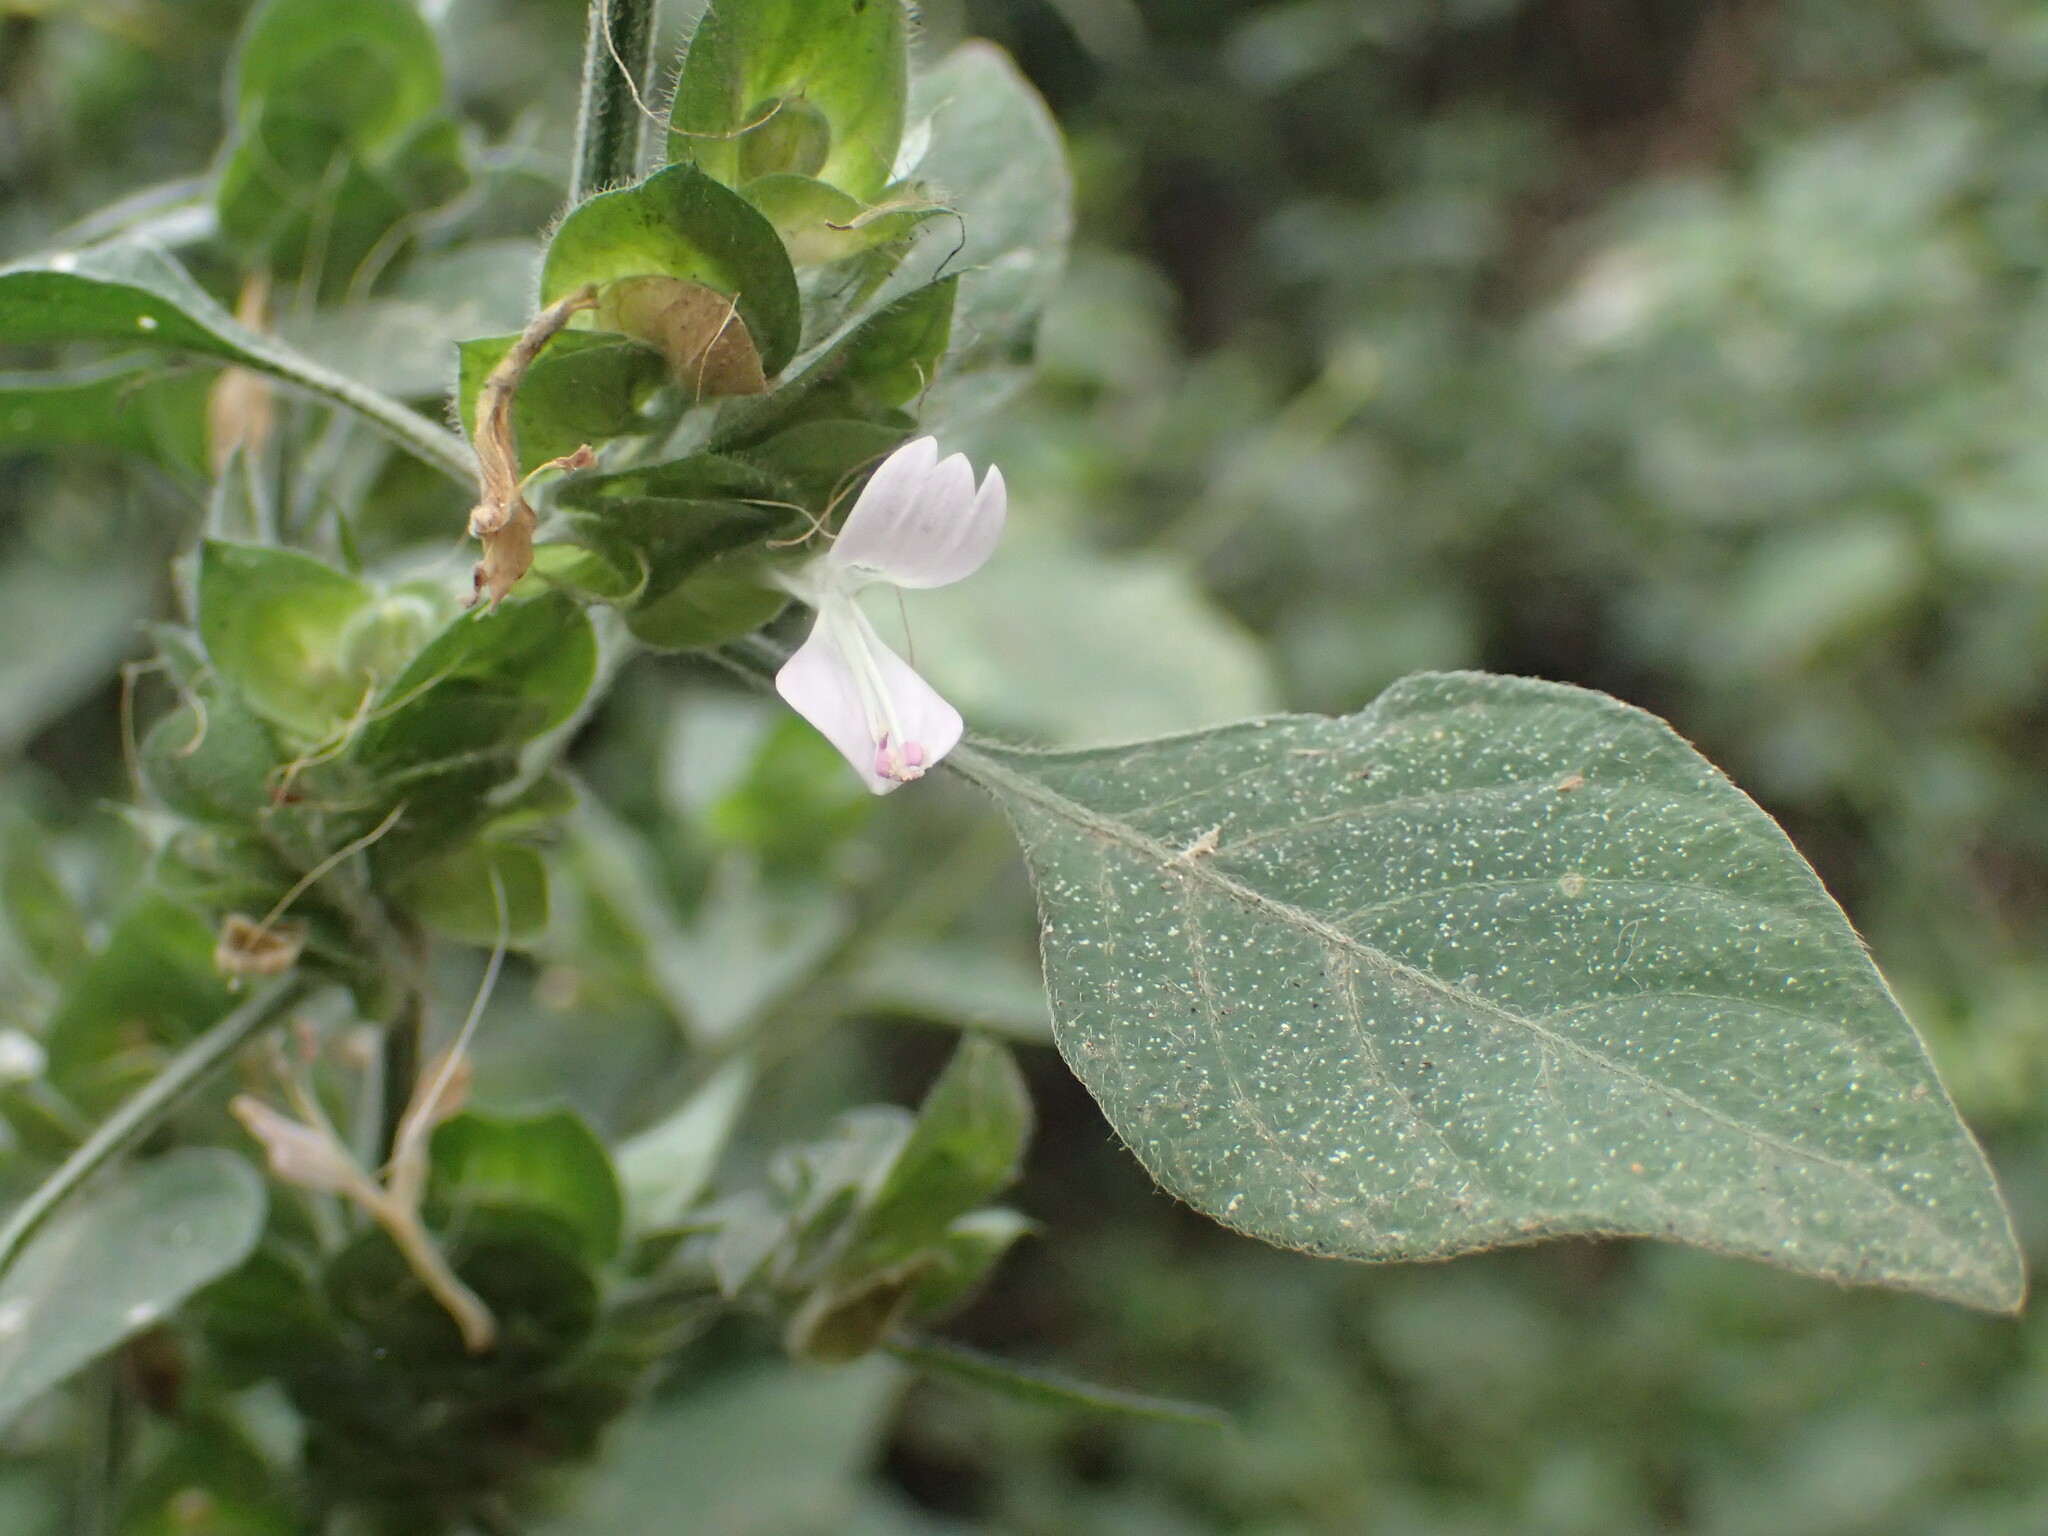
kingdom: Plantae
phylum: Tracheophyta
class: Magnoliopsida
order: Lamiales
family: Acanthaceae
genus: Dicliptera
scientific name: Dicliptera heterostegia
